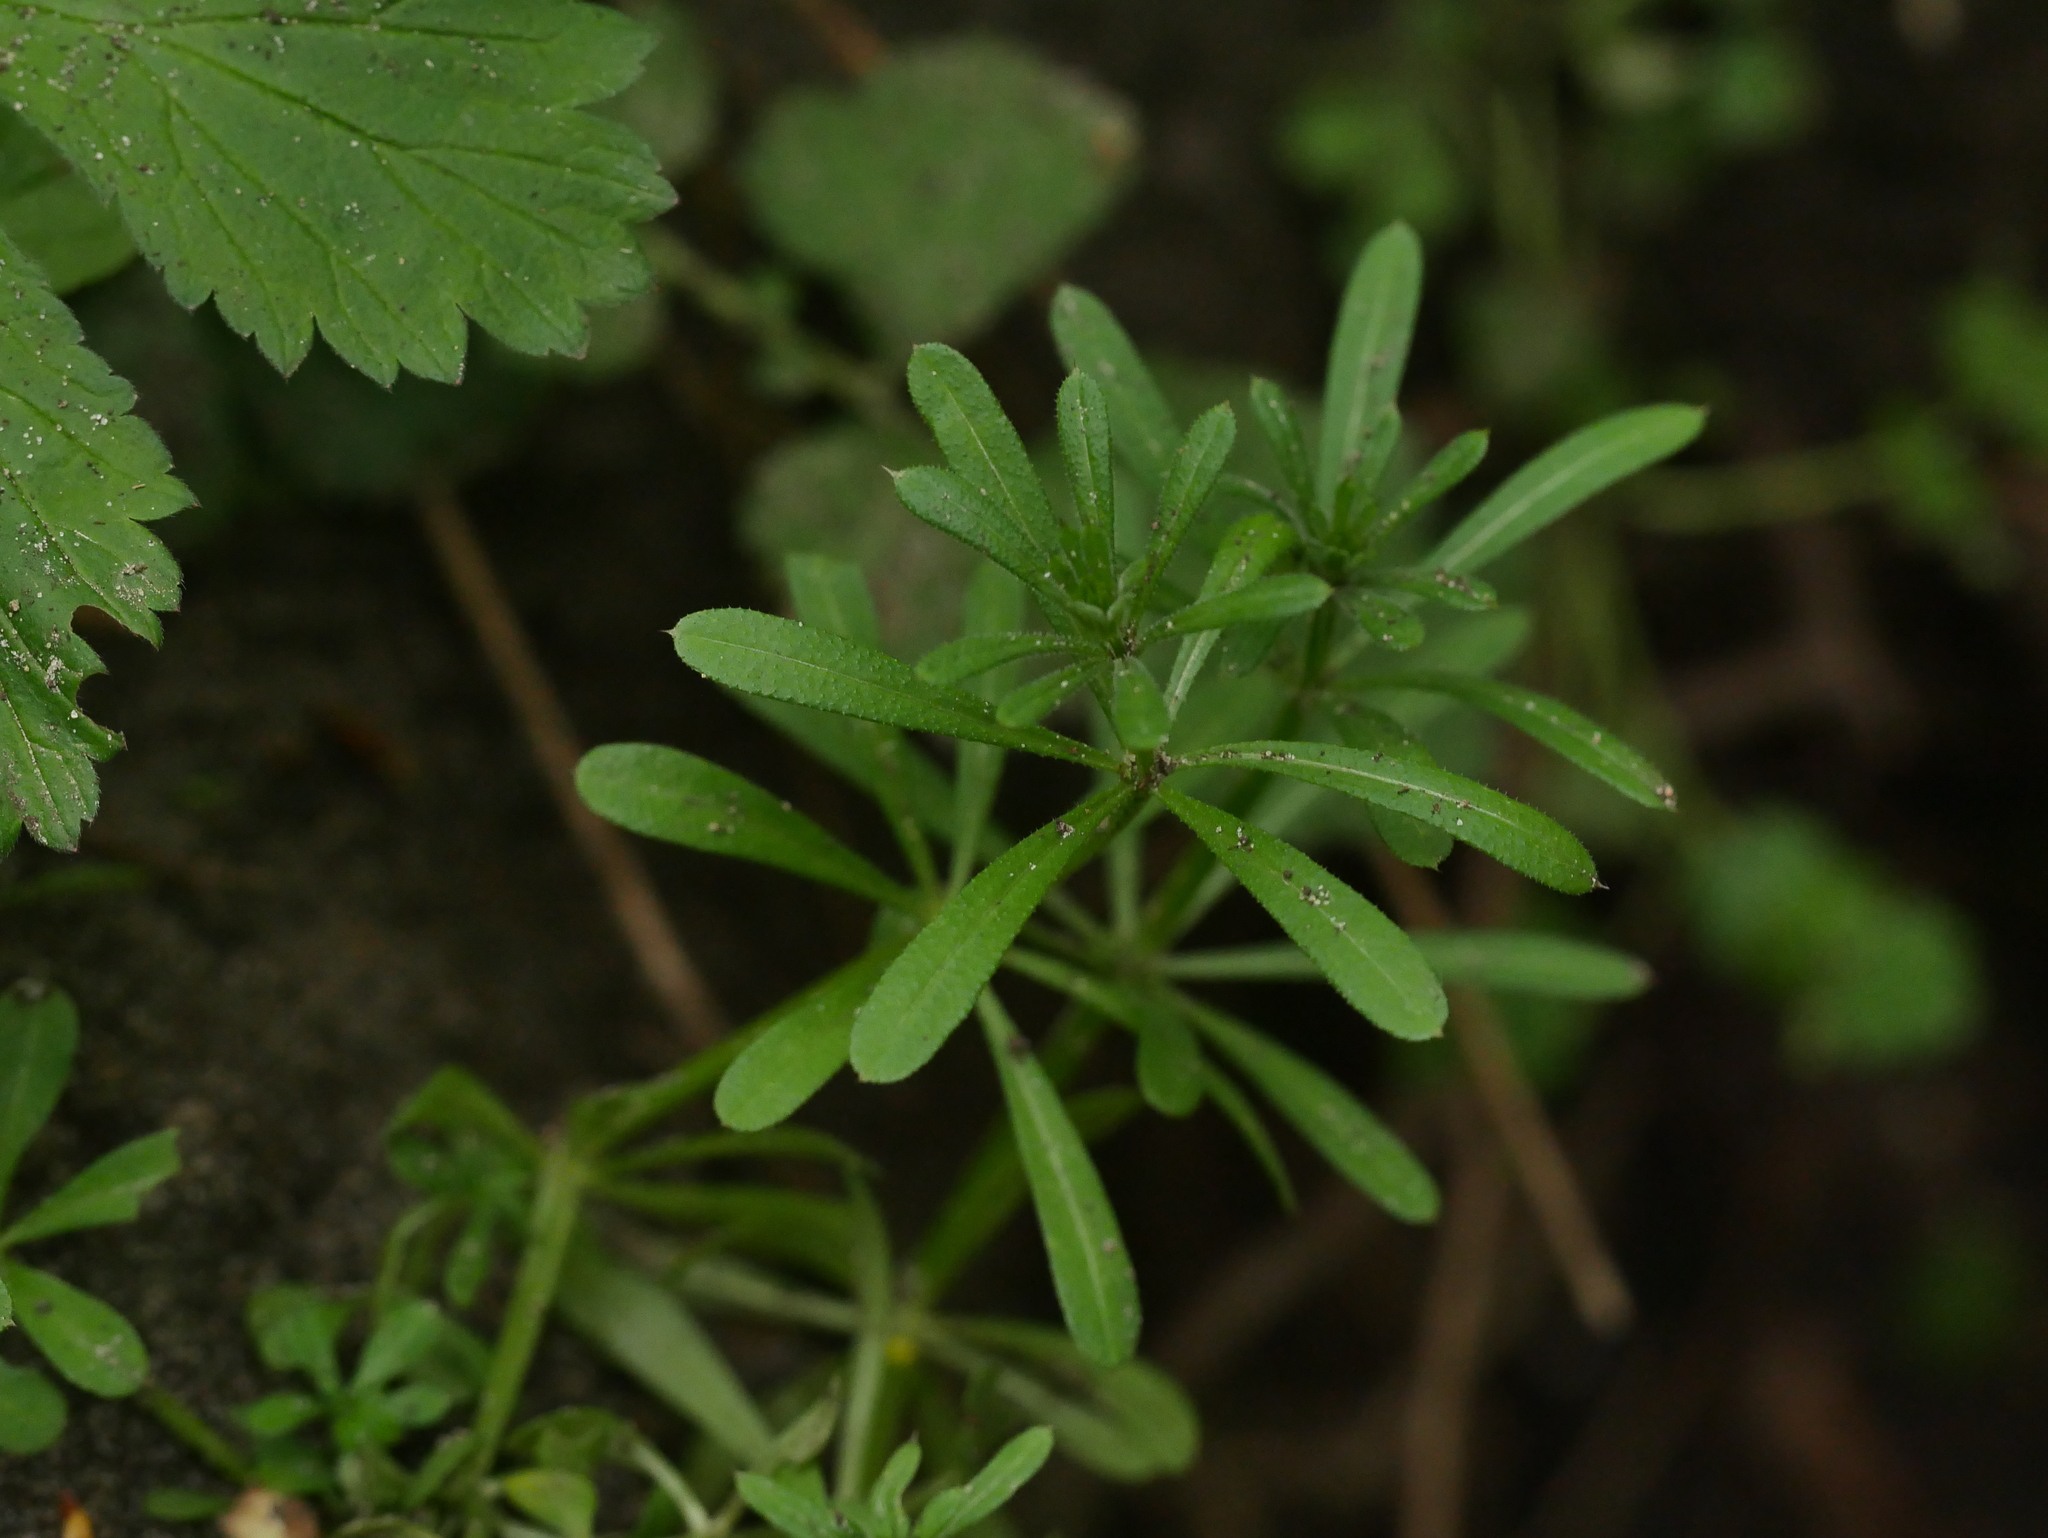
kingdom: Plantae
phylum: Tracheophyta
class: Magnoliopsida
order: Gentianales
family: Rubiaceae
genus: Galium
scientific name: Galium aparine
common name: Cleavers
